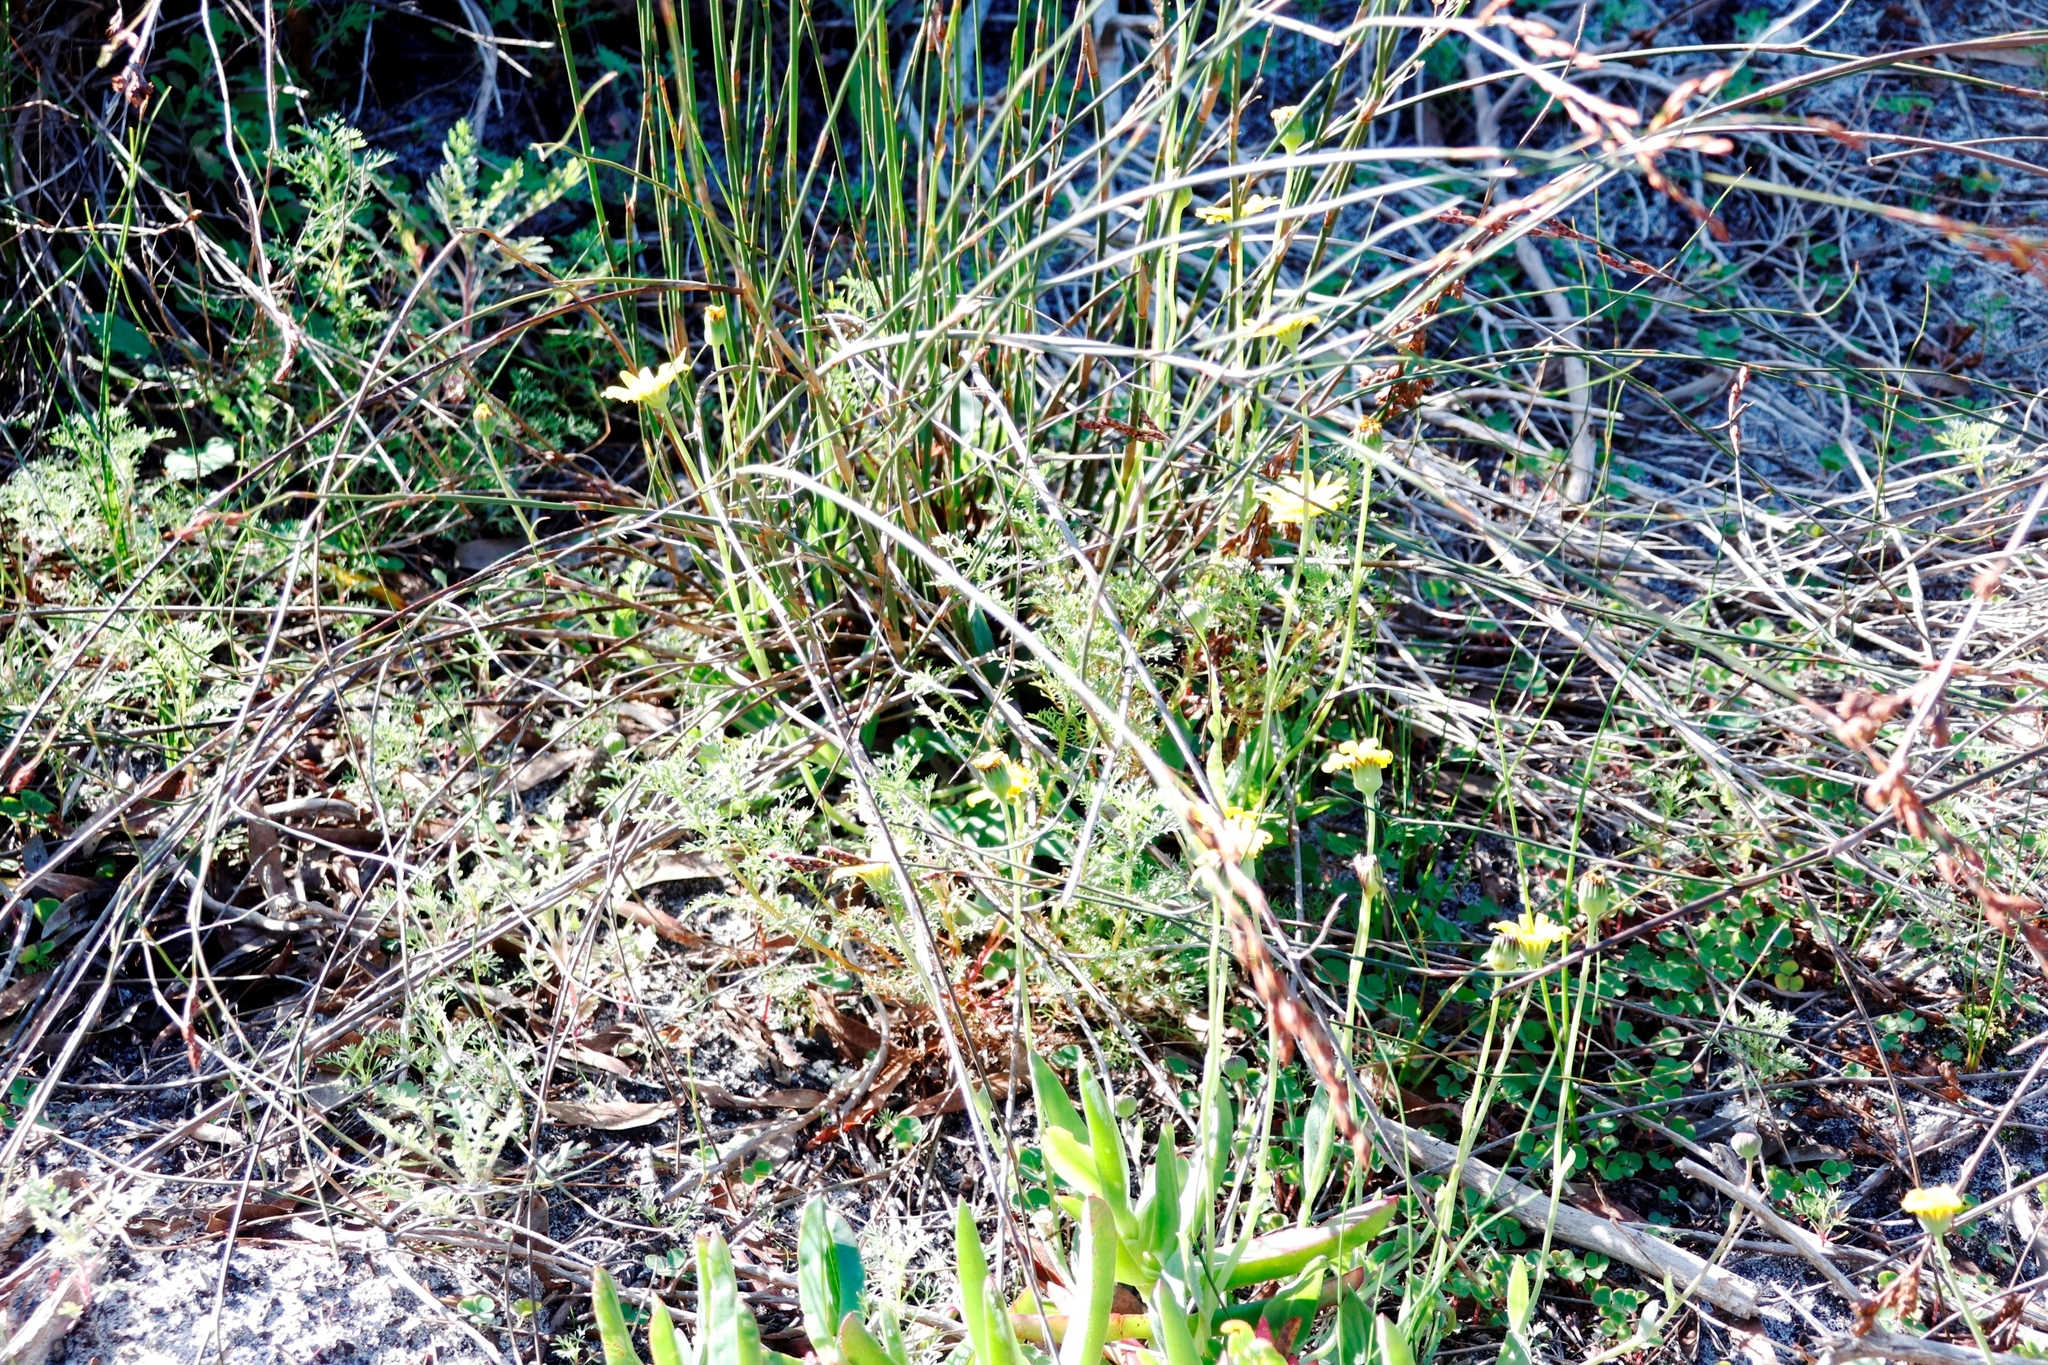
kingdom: Plantae
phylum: Tracheophyta
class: Magnoliopsida
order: Asterales
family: Asteraceae
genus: Othonna
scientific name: Othonna bulbosa
